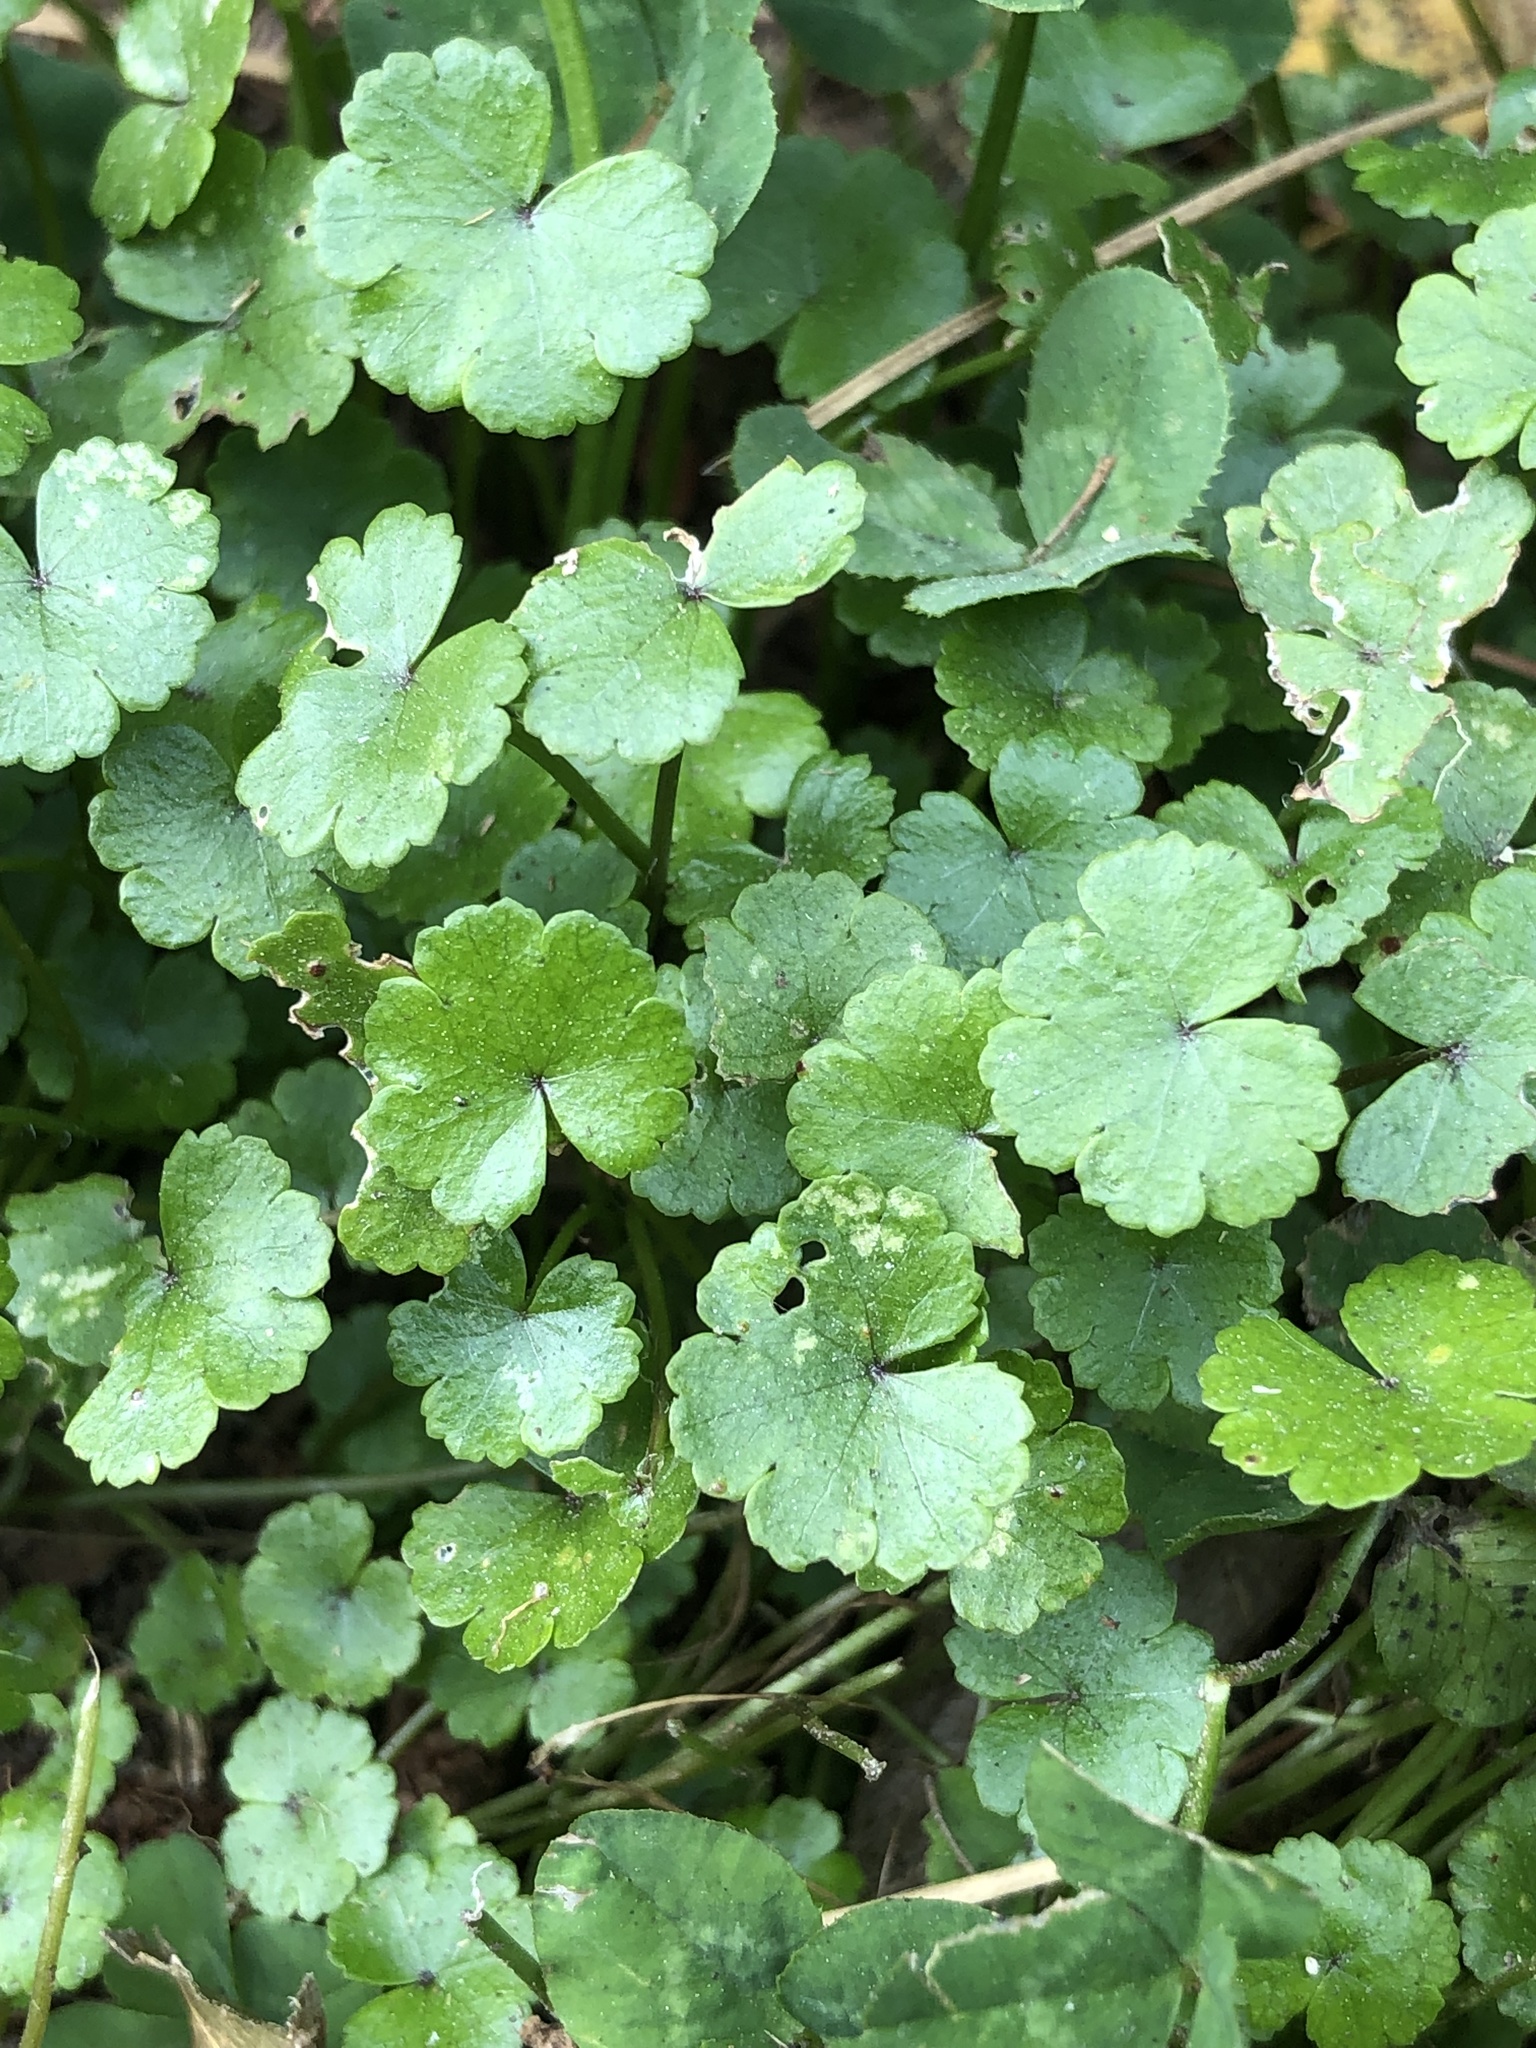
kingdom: Plantae
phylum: Tracheophyta
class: Magnoliopsida
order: Apiales
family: Araliaceae
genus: Hydrocotyle
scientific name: Hydrocotyle heteromeria
